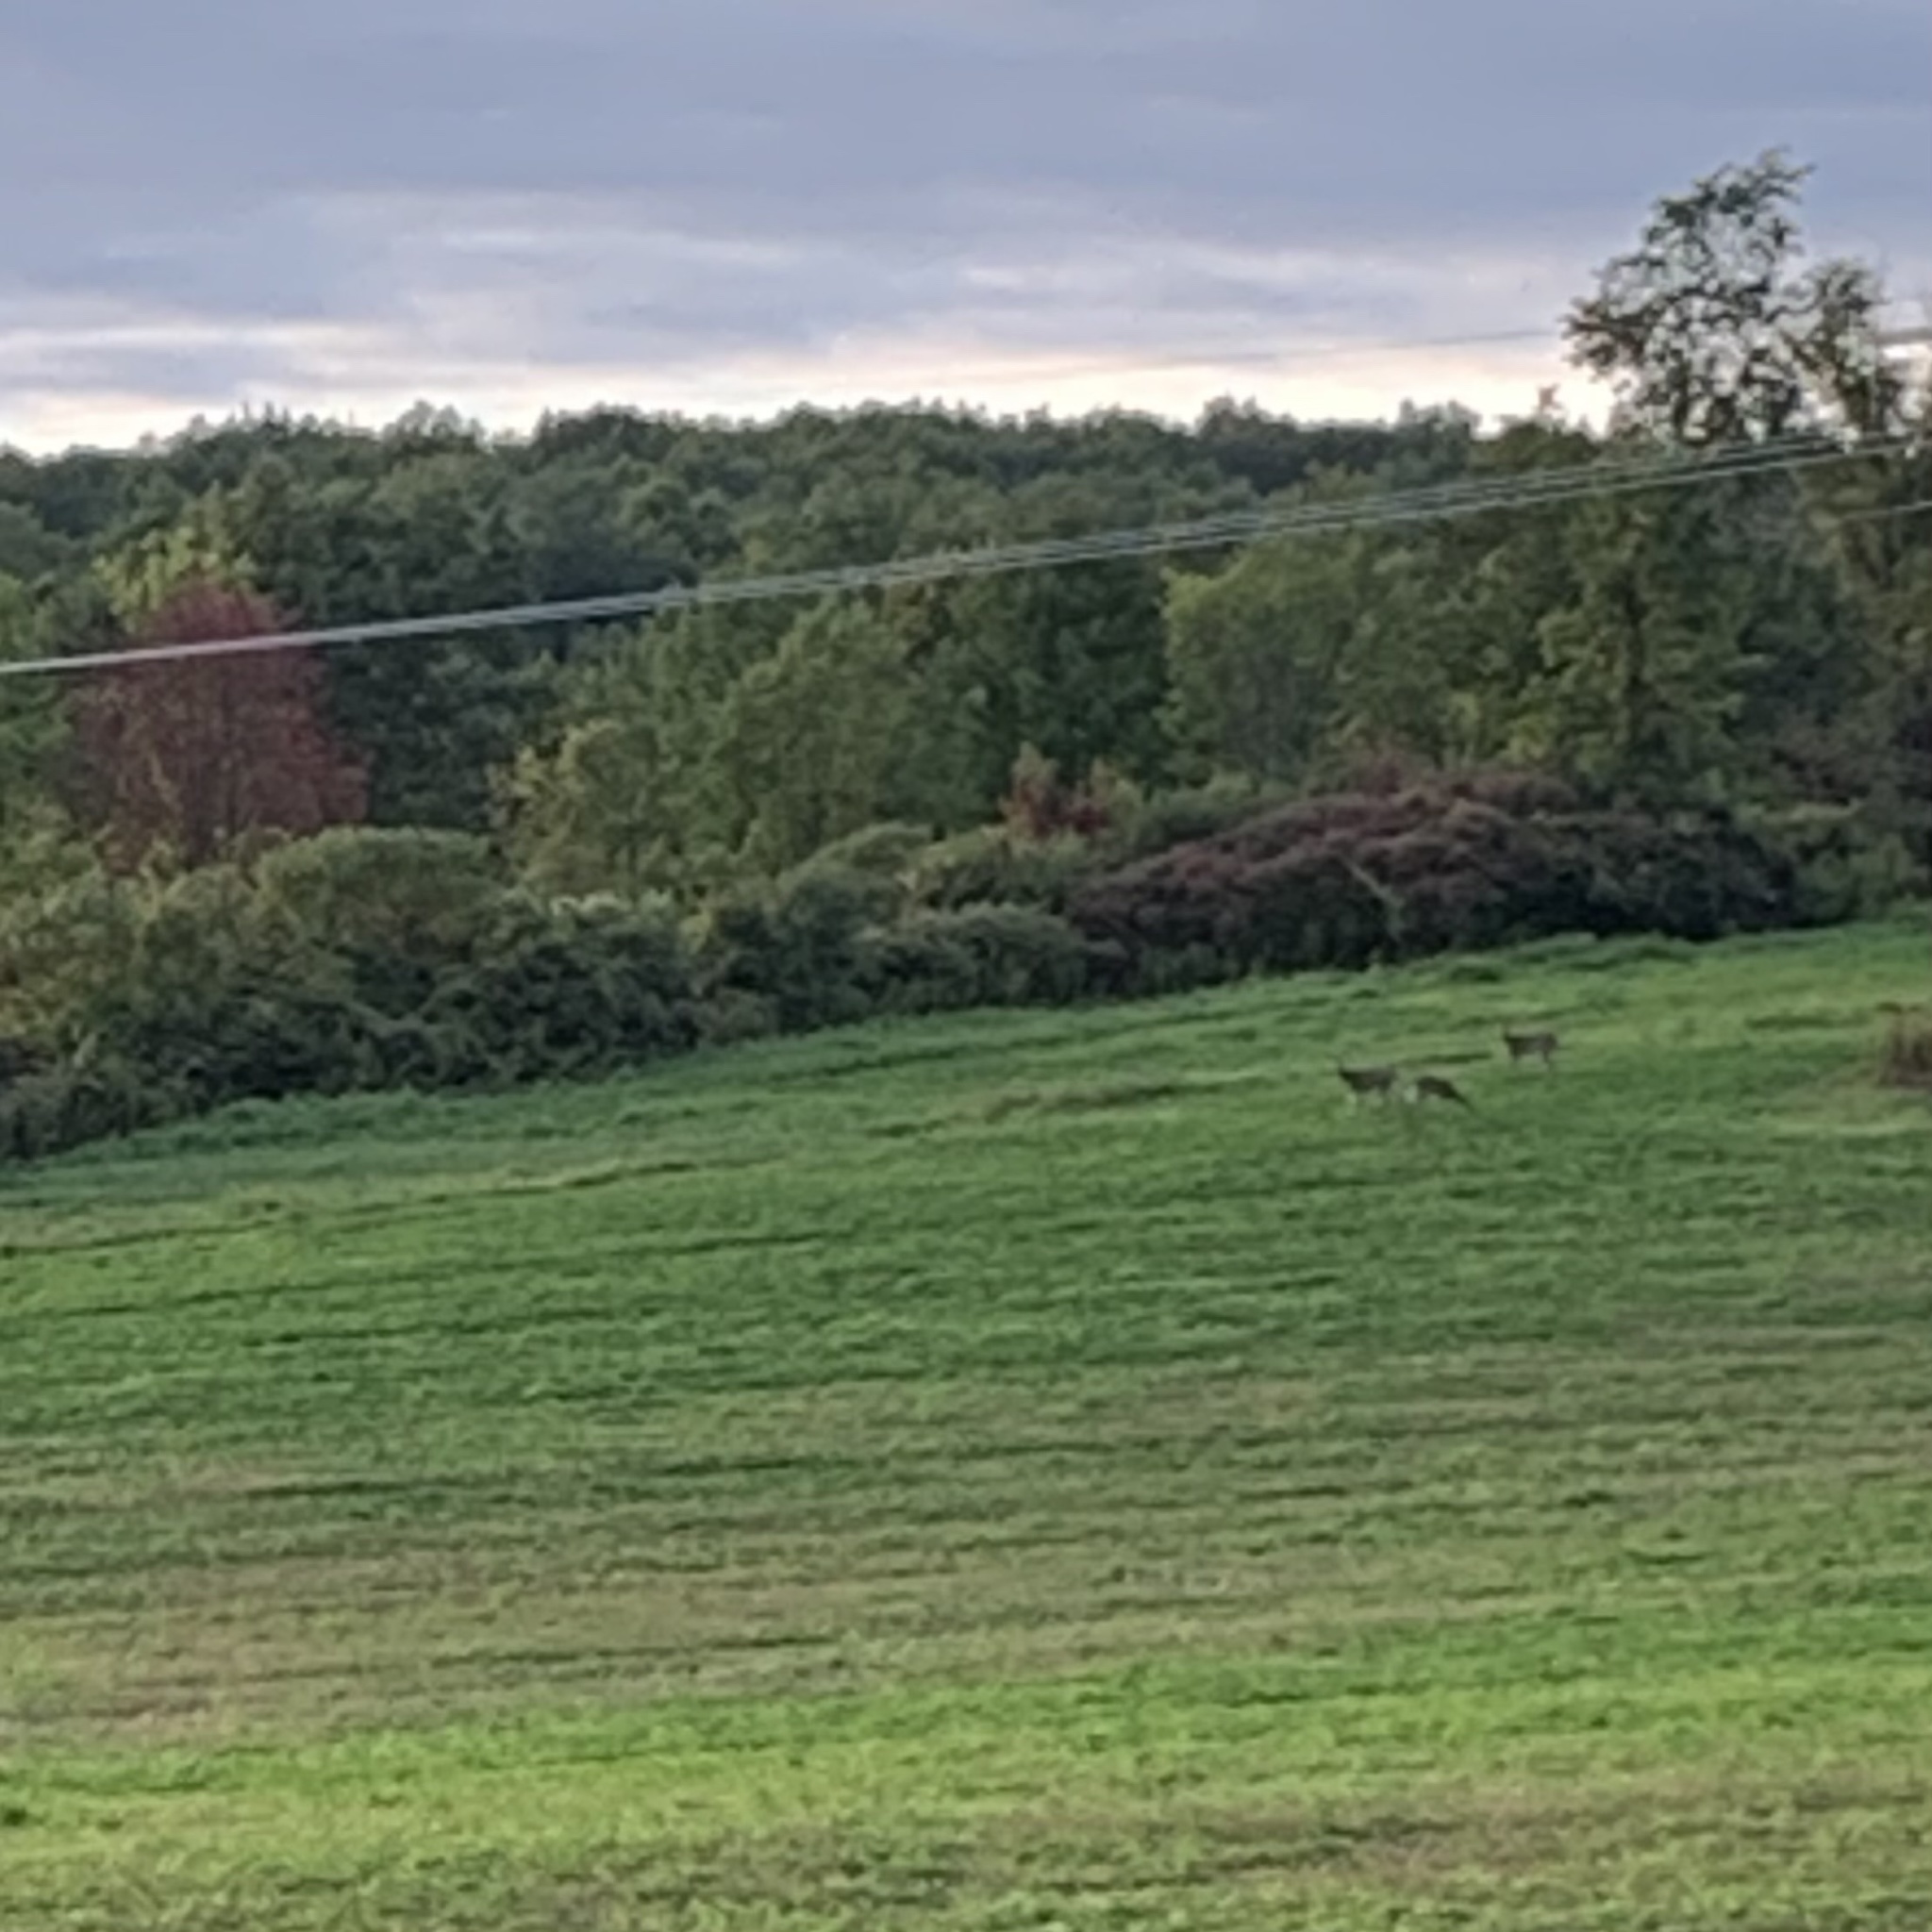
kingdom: Animalia
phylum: Chordata
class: Mammalia
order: Artiodactyla
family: Cervidae
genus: Odocoileus
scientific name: Odocoileus virginianus
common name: White-tailed deer
